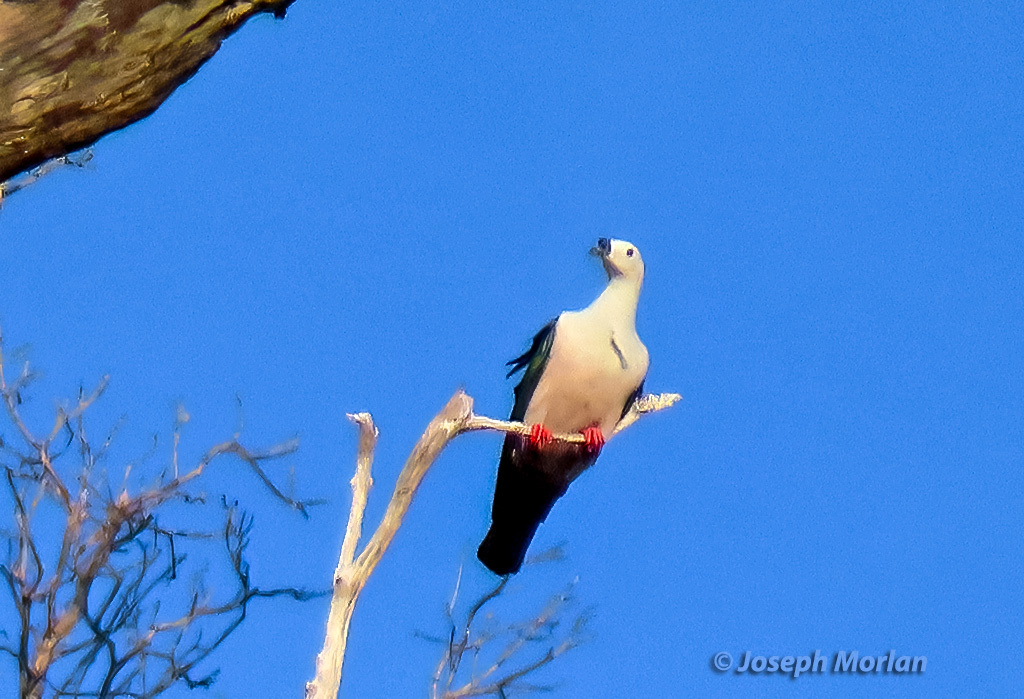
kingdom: Animalia
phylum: Chordata
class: Aves
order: Columbiformes
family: Columbidae
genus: Ducula
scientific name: Ducula myristicivora
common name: Spice imperial pigeon
